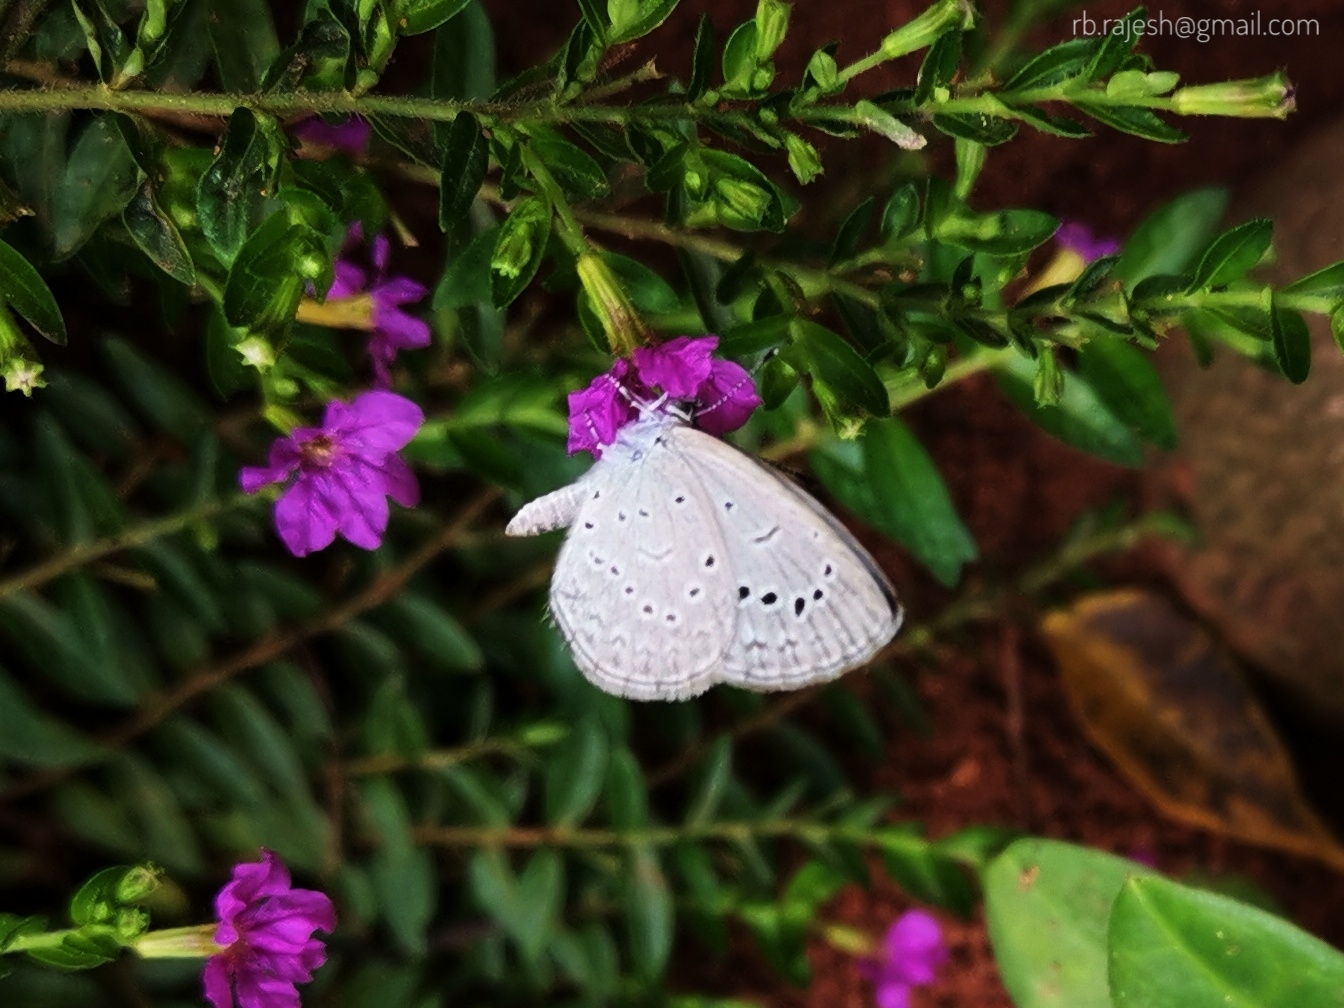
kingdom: Animalia
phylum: Arthropoda
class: Insecta
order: Lepidoptera
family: Lycaenidae
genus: Pseudozizeeria
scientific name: Pseudozizeeria maha
